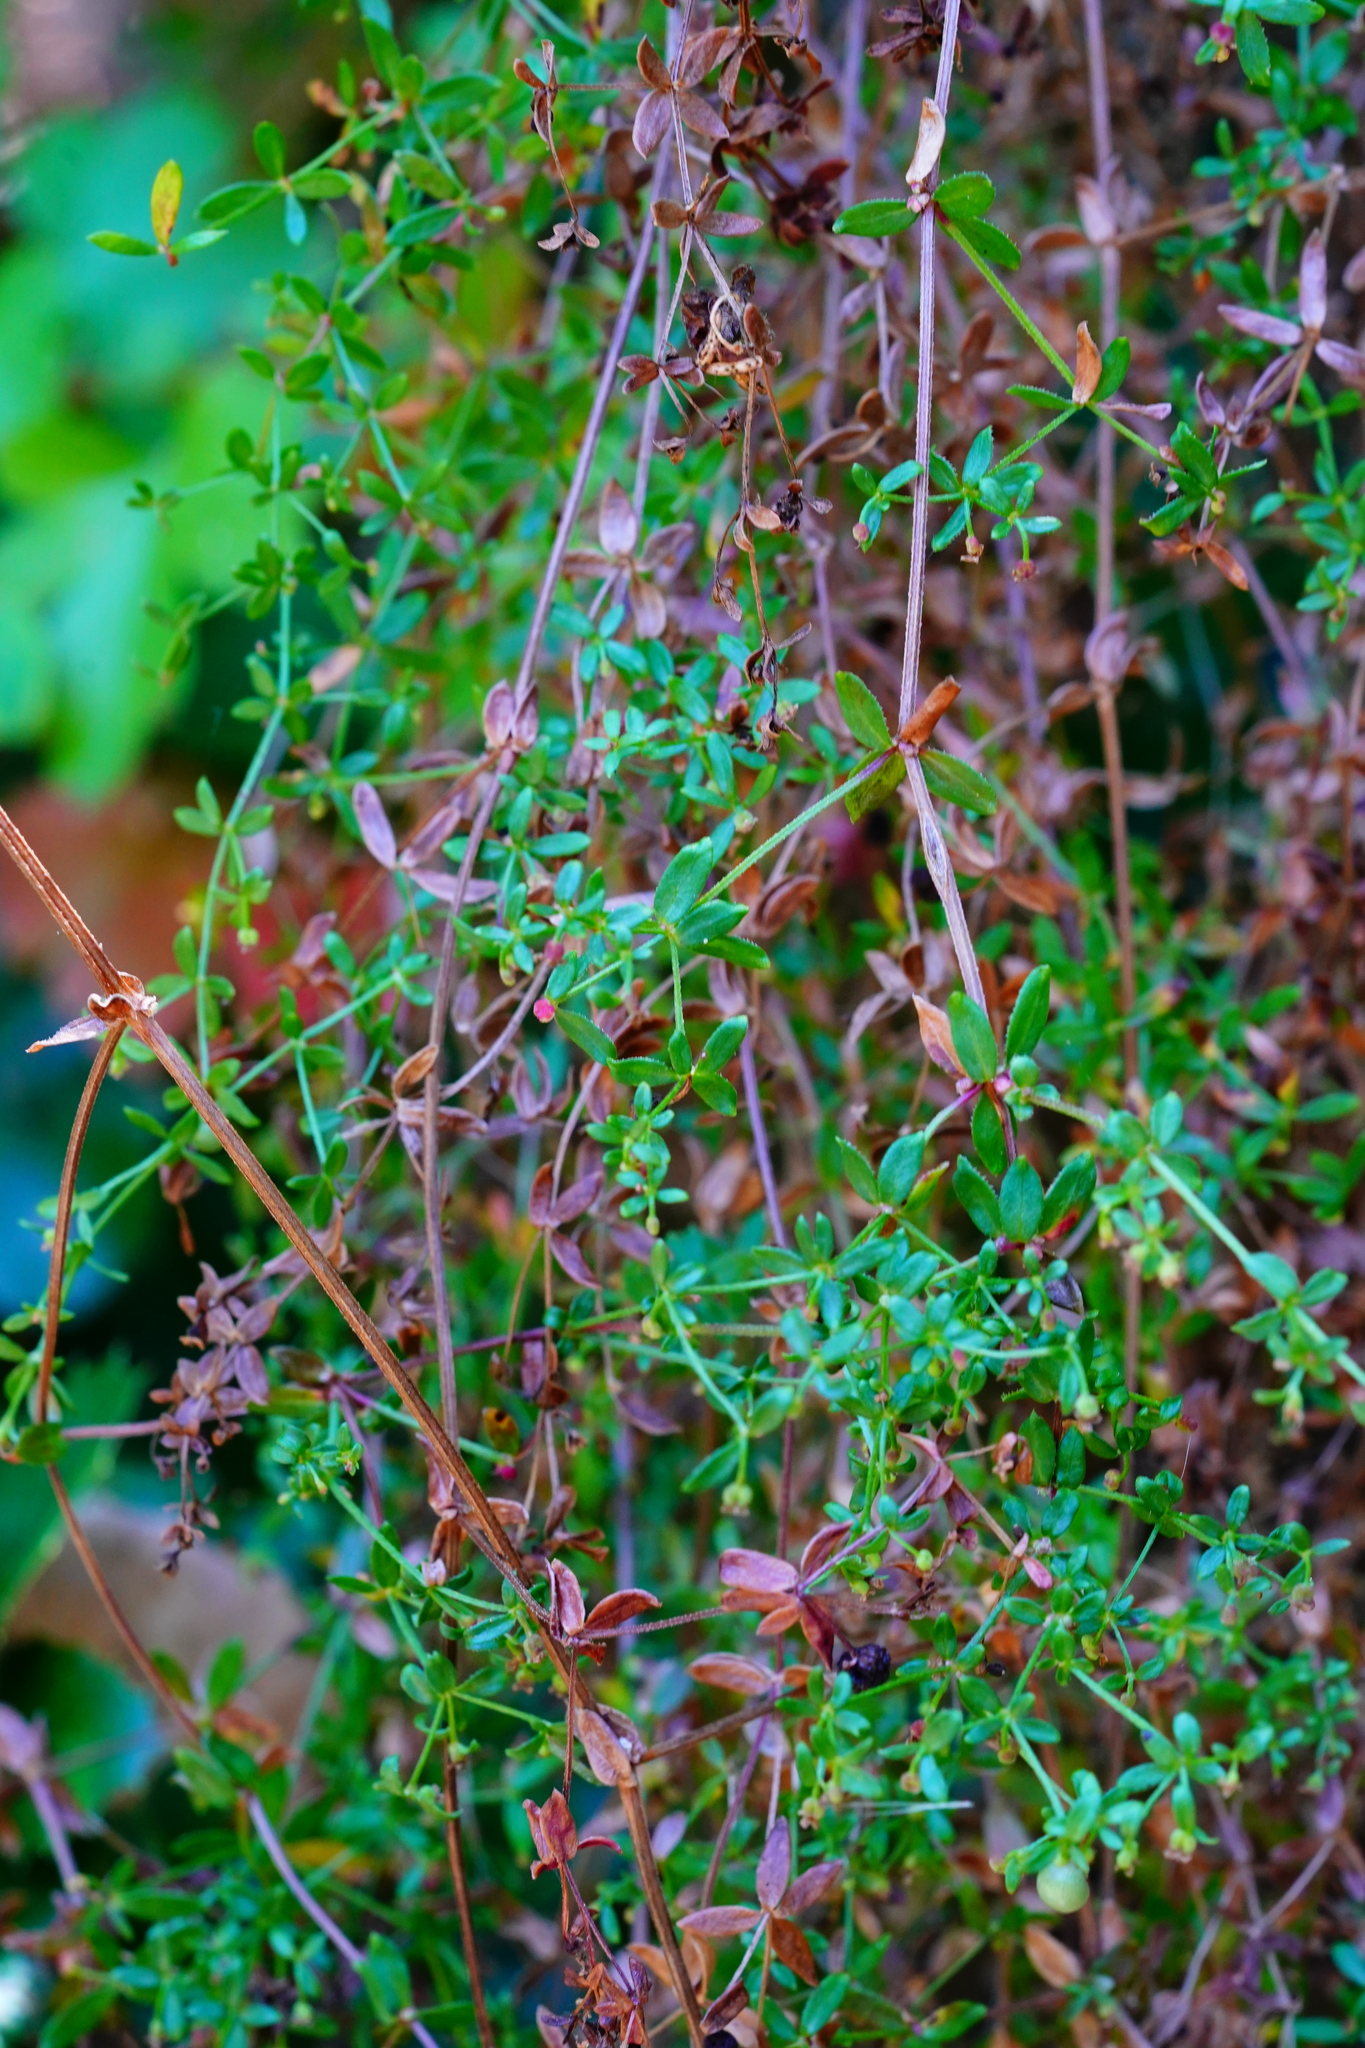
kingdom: Plantae
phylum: Tracheophyta
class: Magnoliopsida
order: Gentianales
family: Rubiaceae
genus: Galium
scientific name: Galium porrigens
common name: Climbing bedstraw
